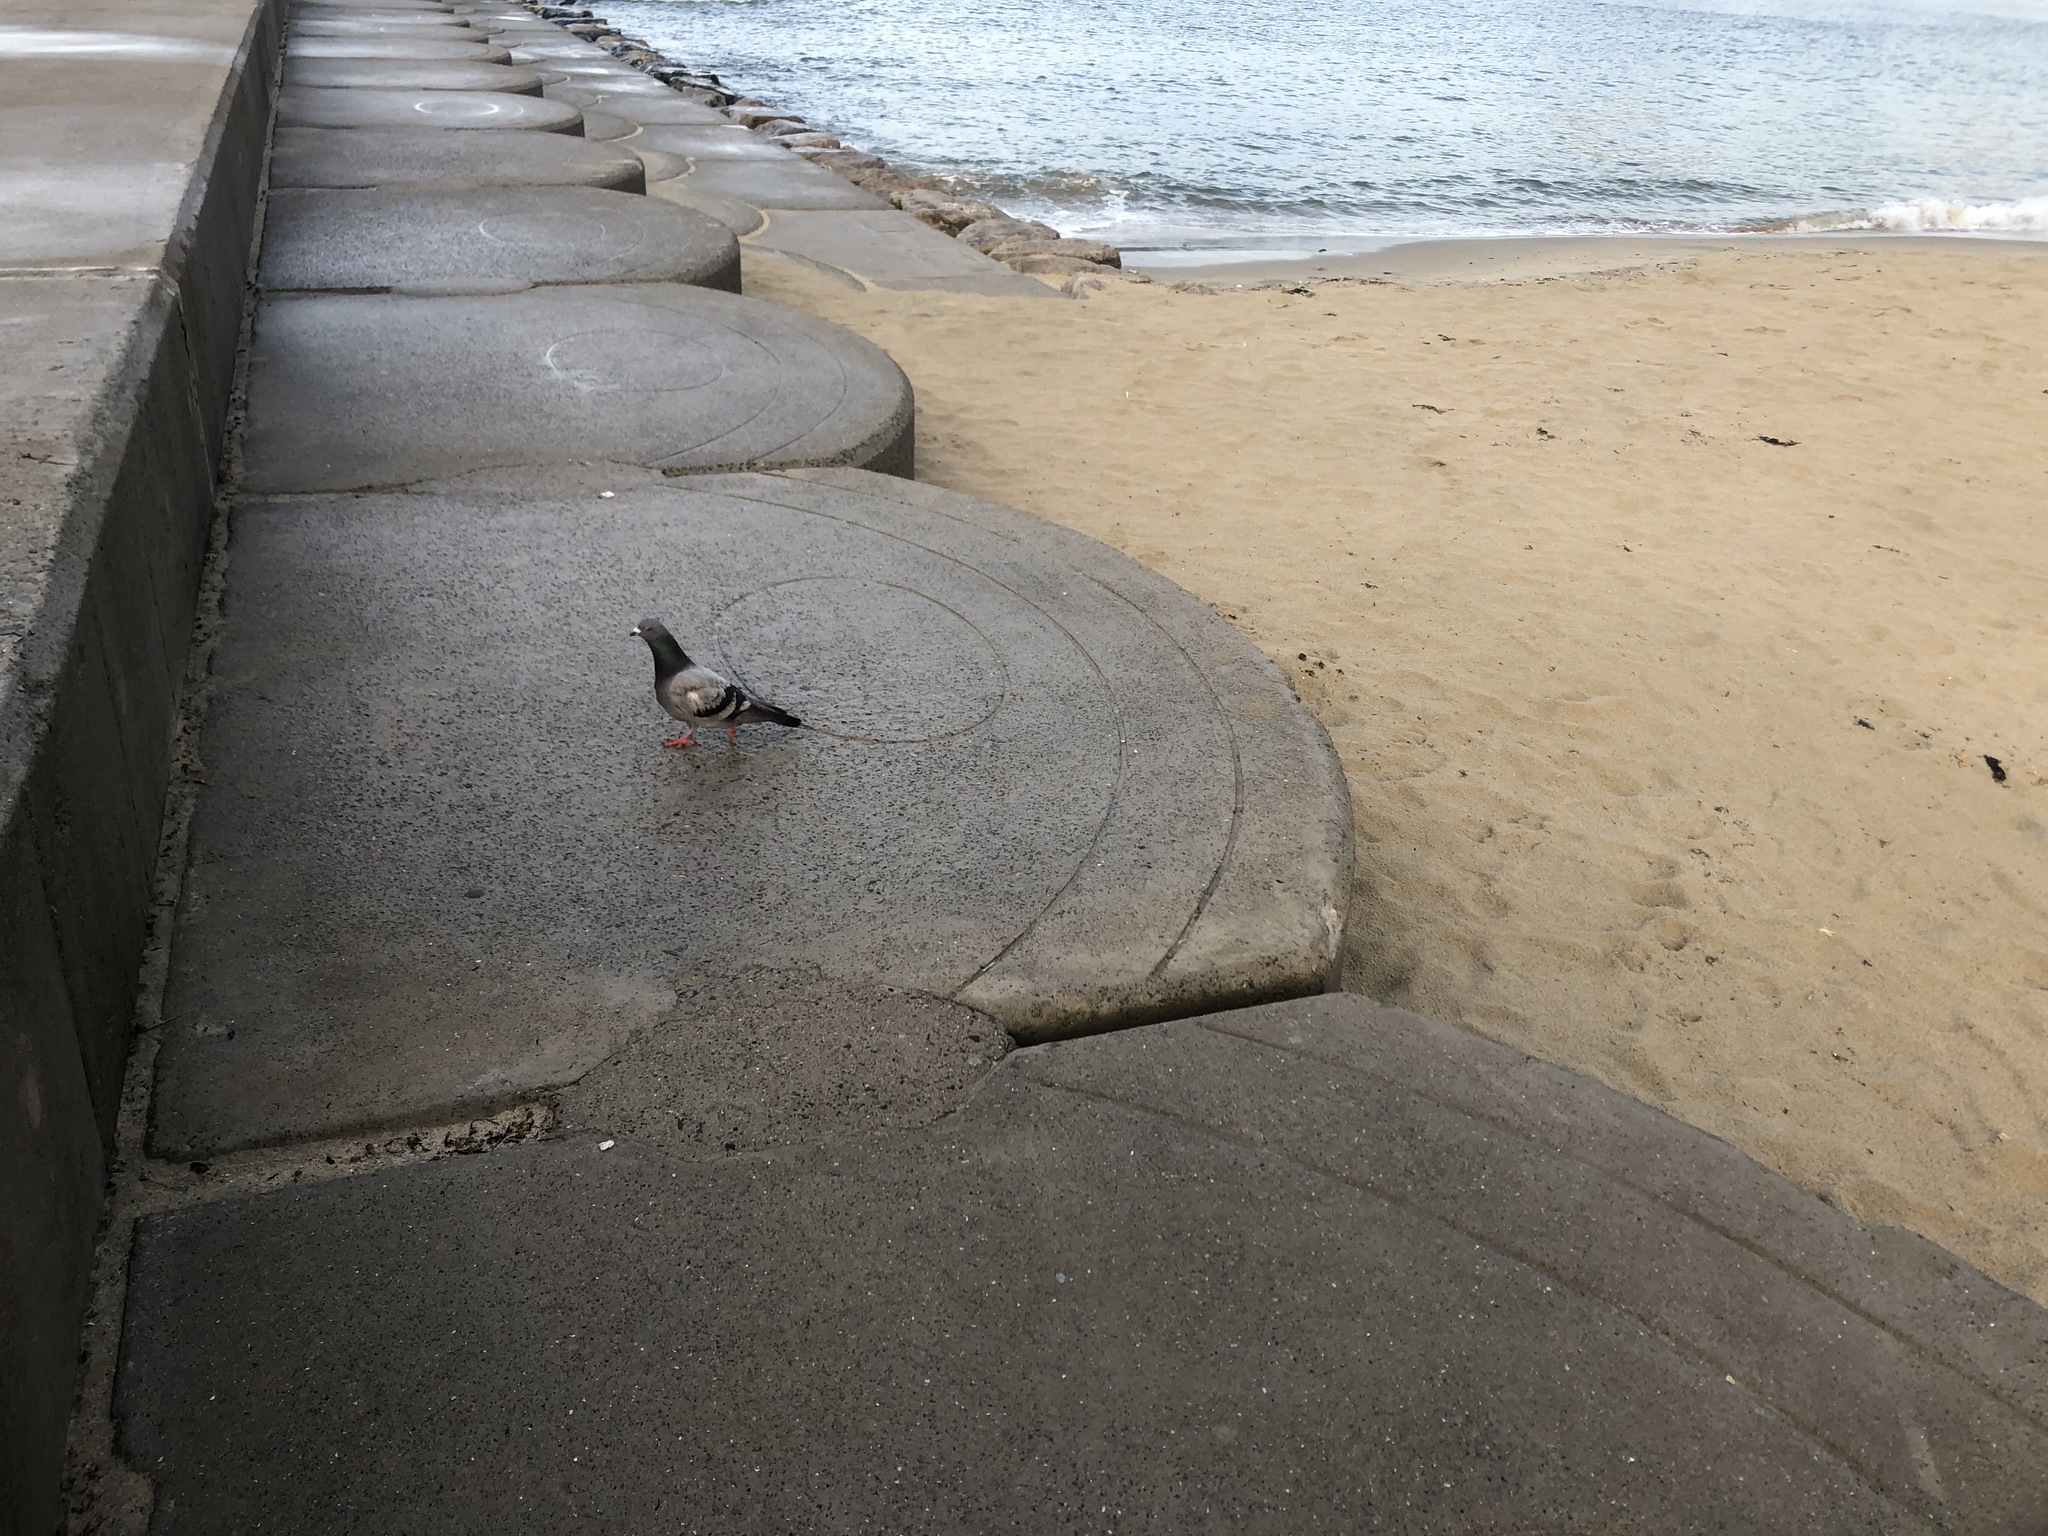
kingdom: Animalia
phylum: Chordata
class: Aves
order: Columbiformes
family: Columbidae
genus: Columba
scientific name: Columba livia
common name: Rock pigeon
